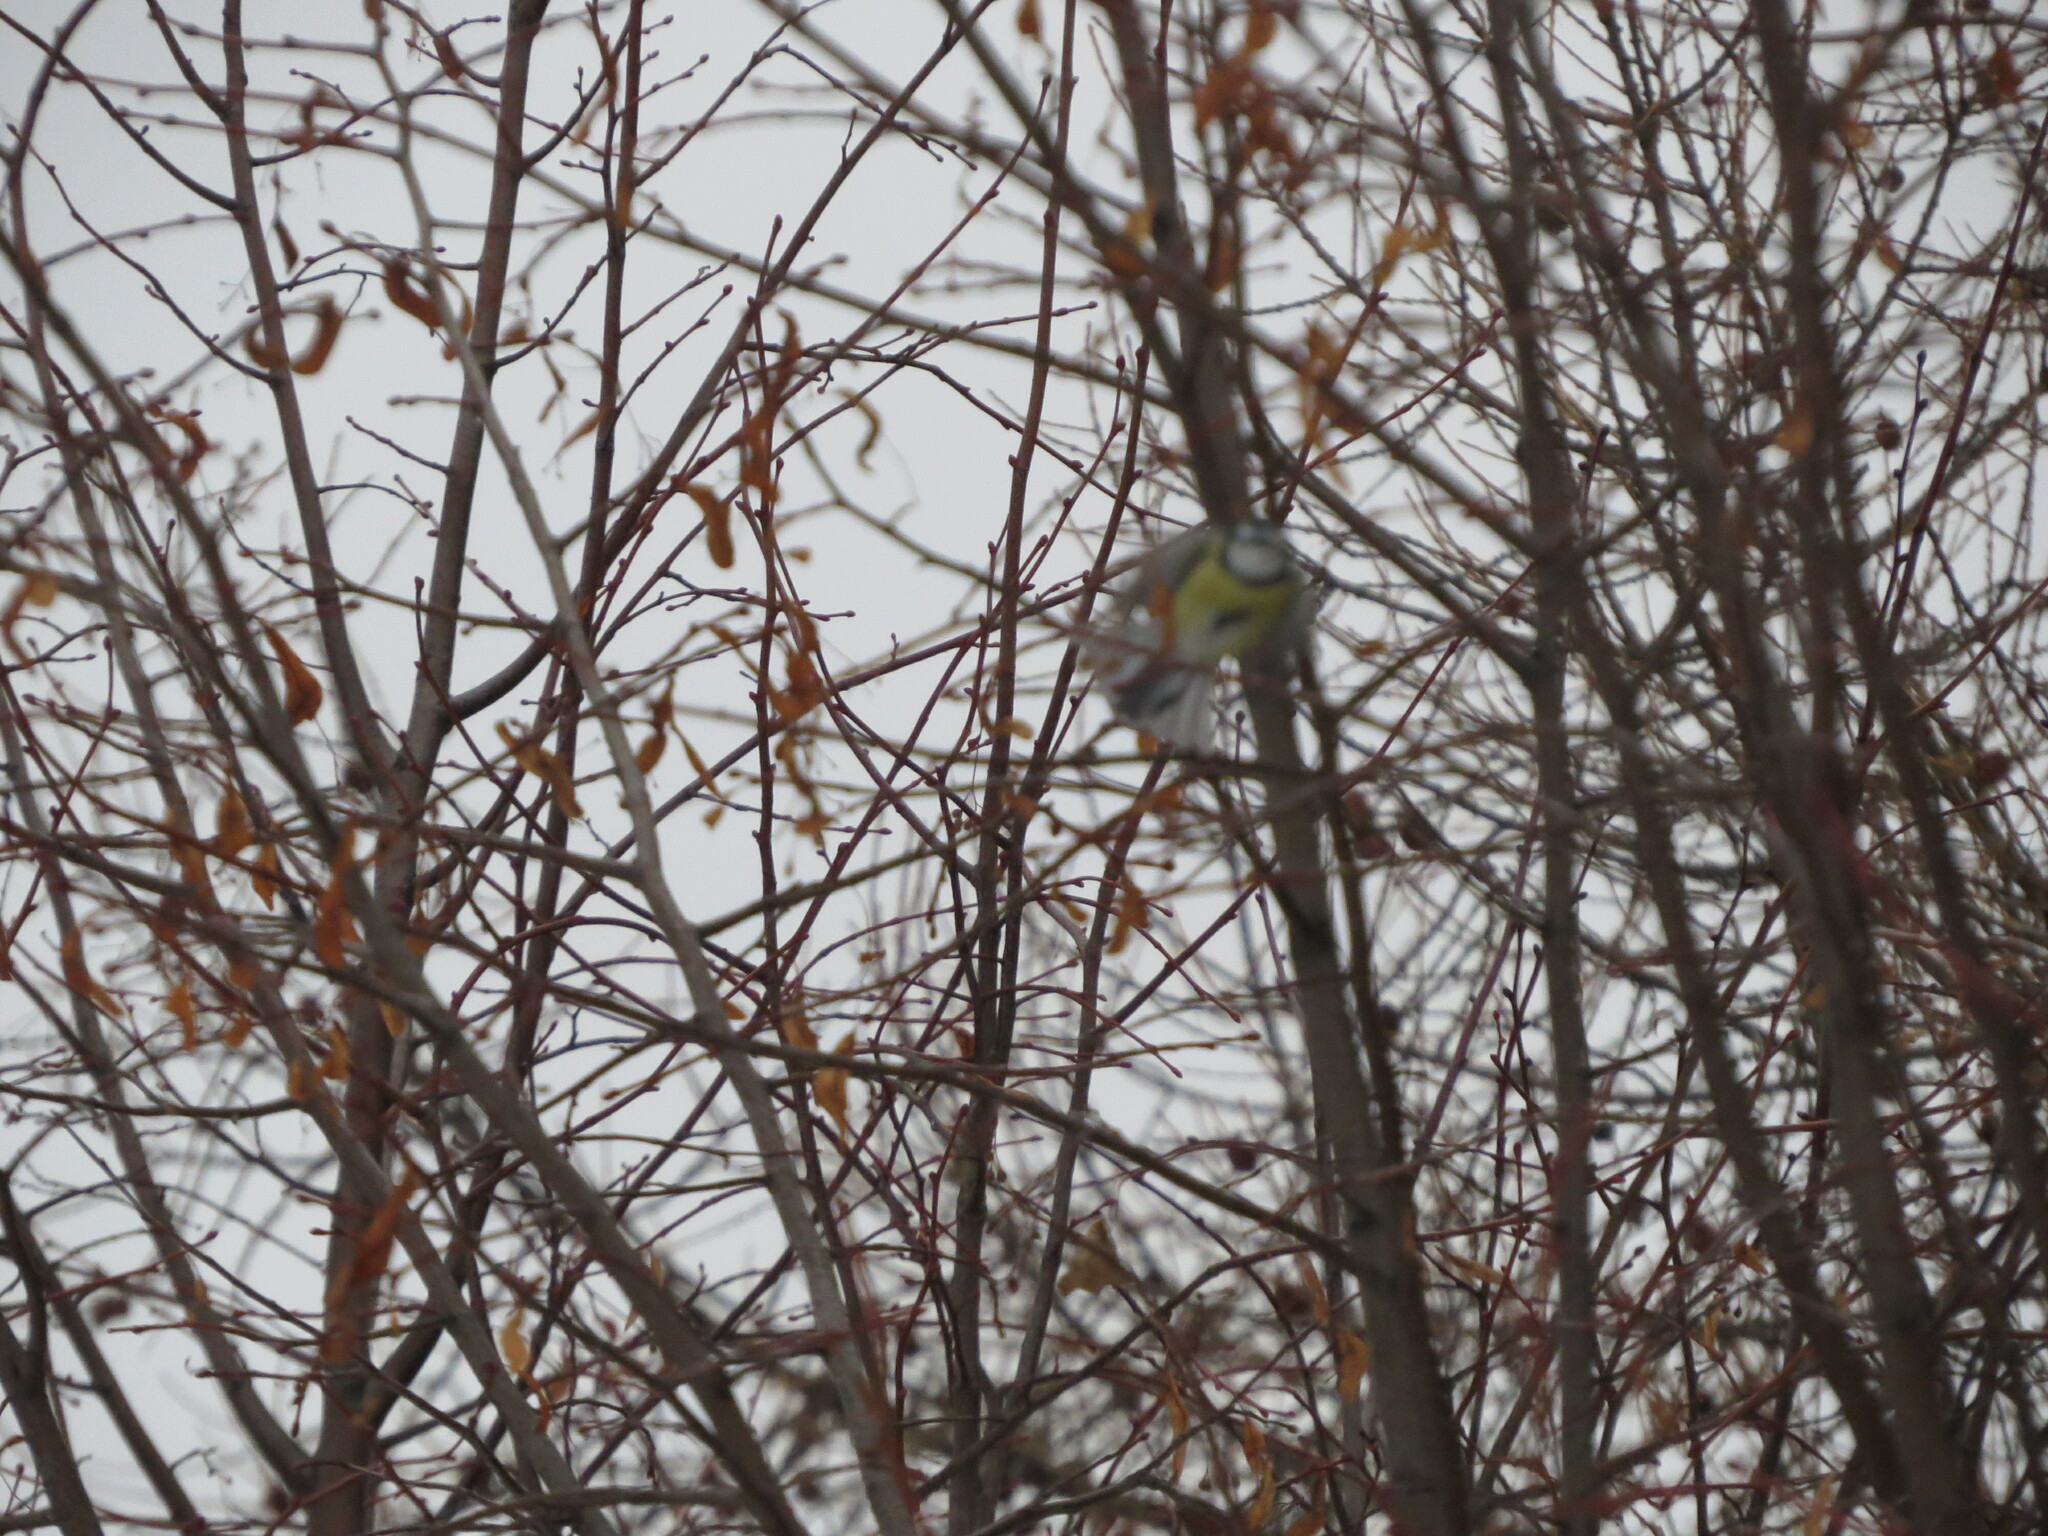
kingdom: Animalia
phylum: Chordata
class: Aves
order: Passeriformes
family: Paridae
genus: Cyanistes
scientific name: Cyanistes caeruleus
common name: Eurasian blue tit
